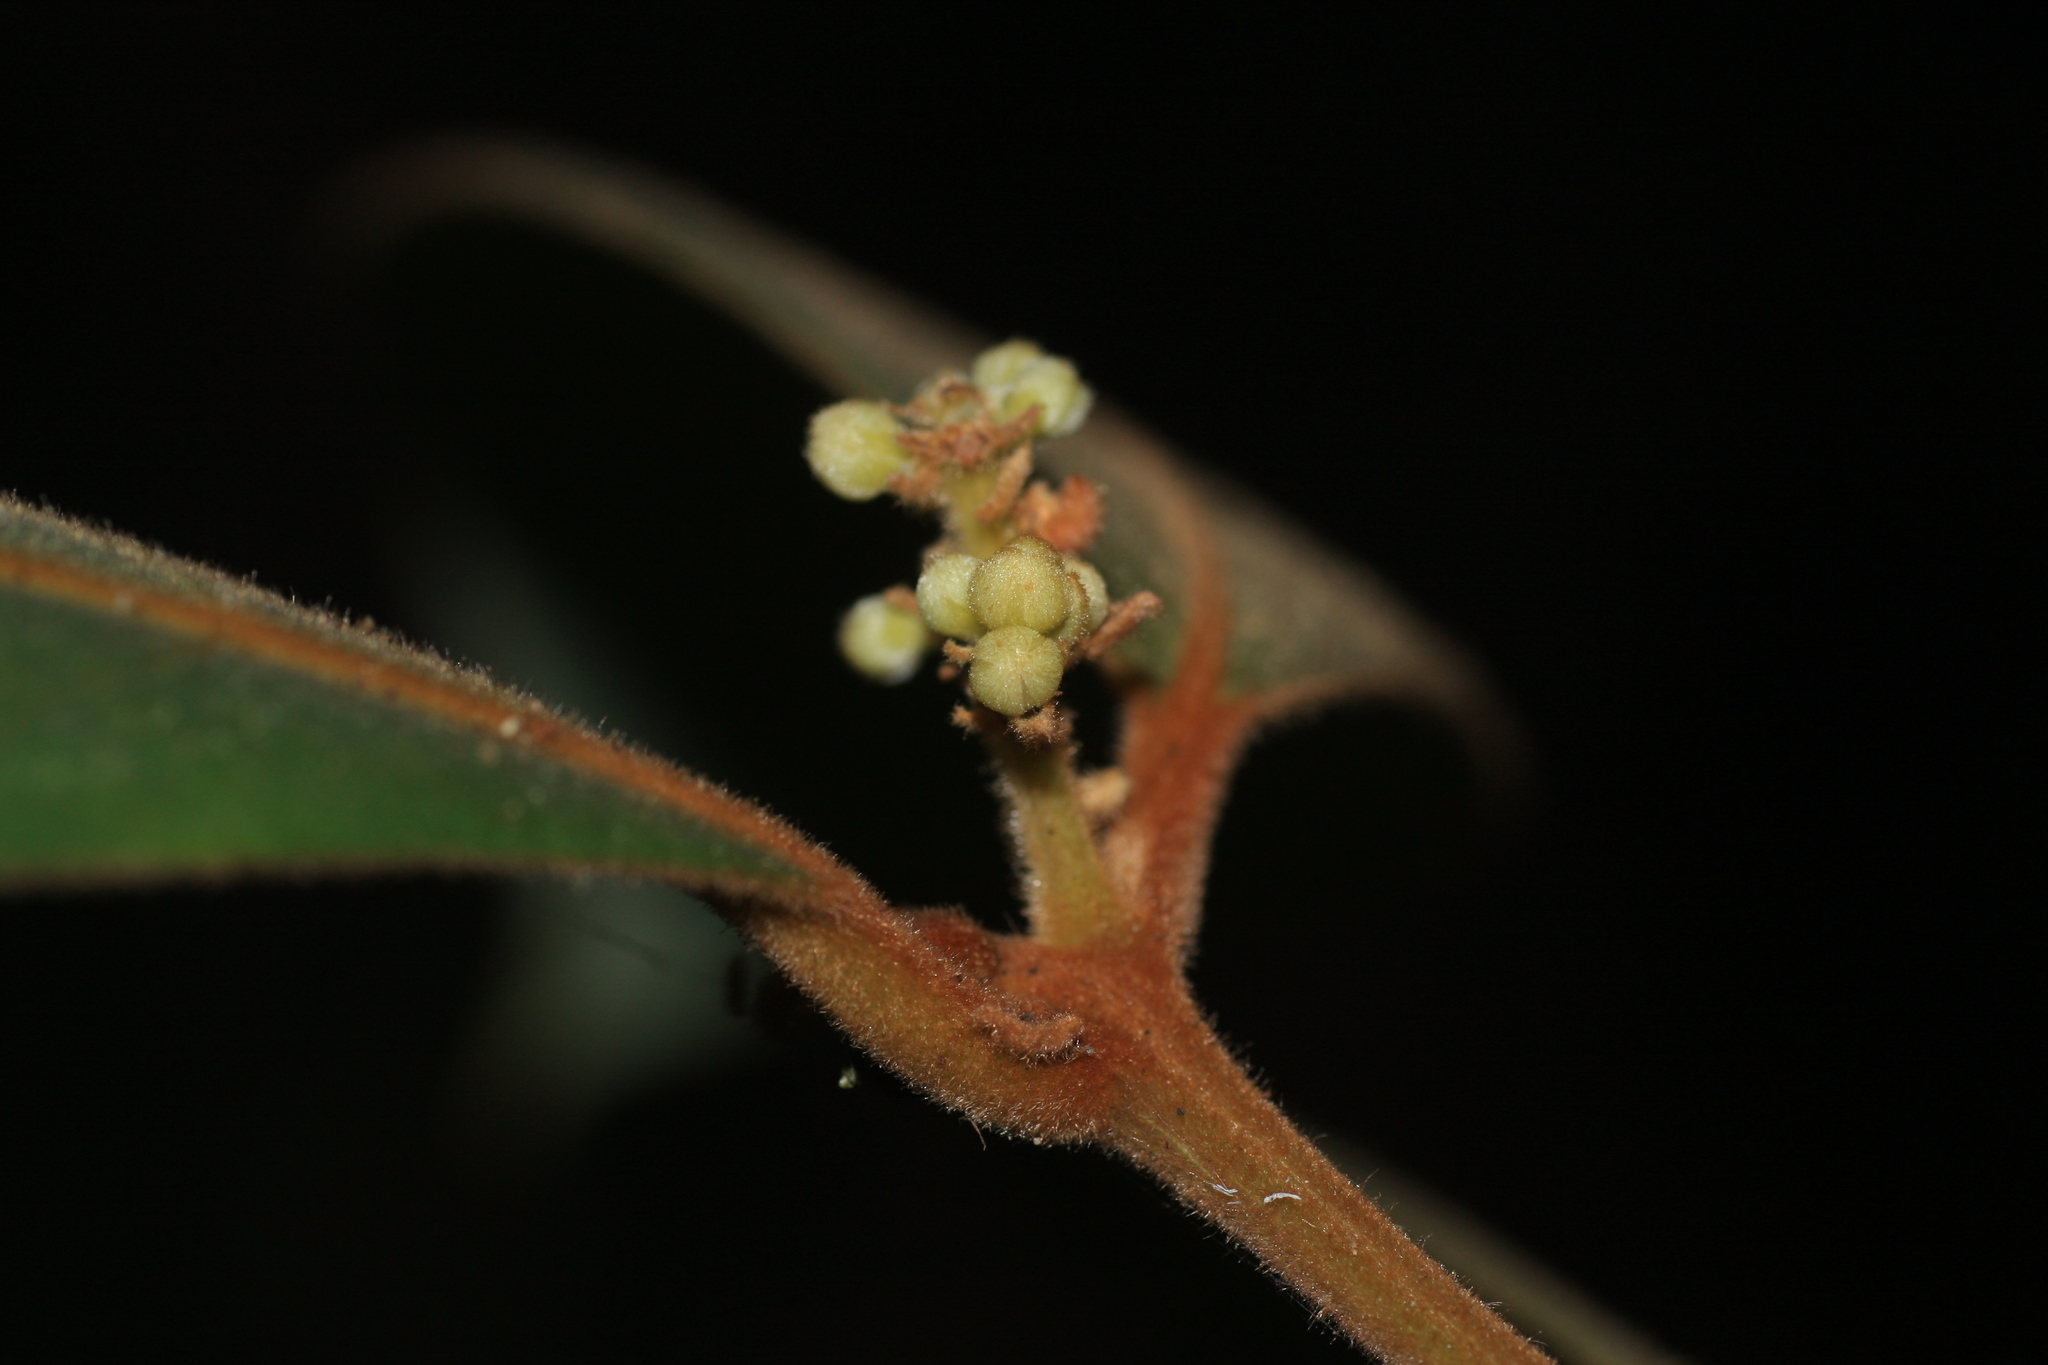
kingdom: Plantae
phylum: Tracheophyta
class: Magnoliopsida
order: Laurales
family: Lauraceae
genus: Cryptocarya
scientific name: Cryptocarya anamalayana
